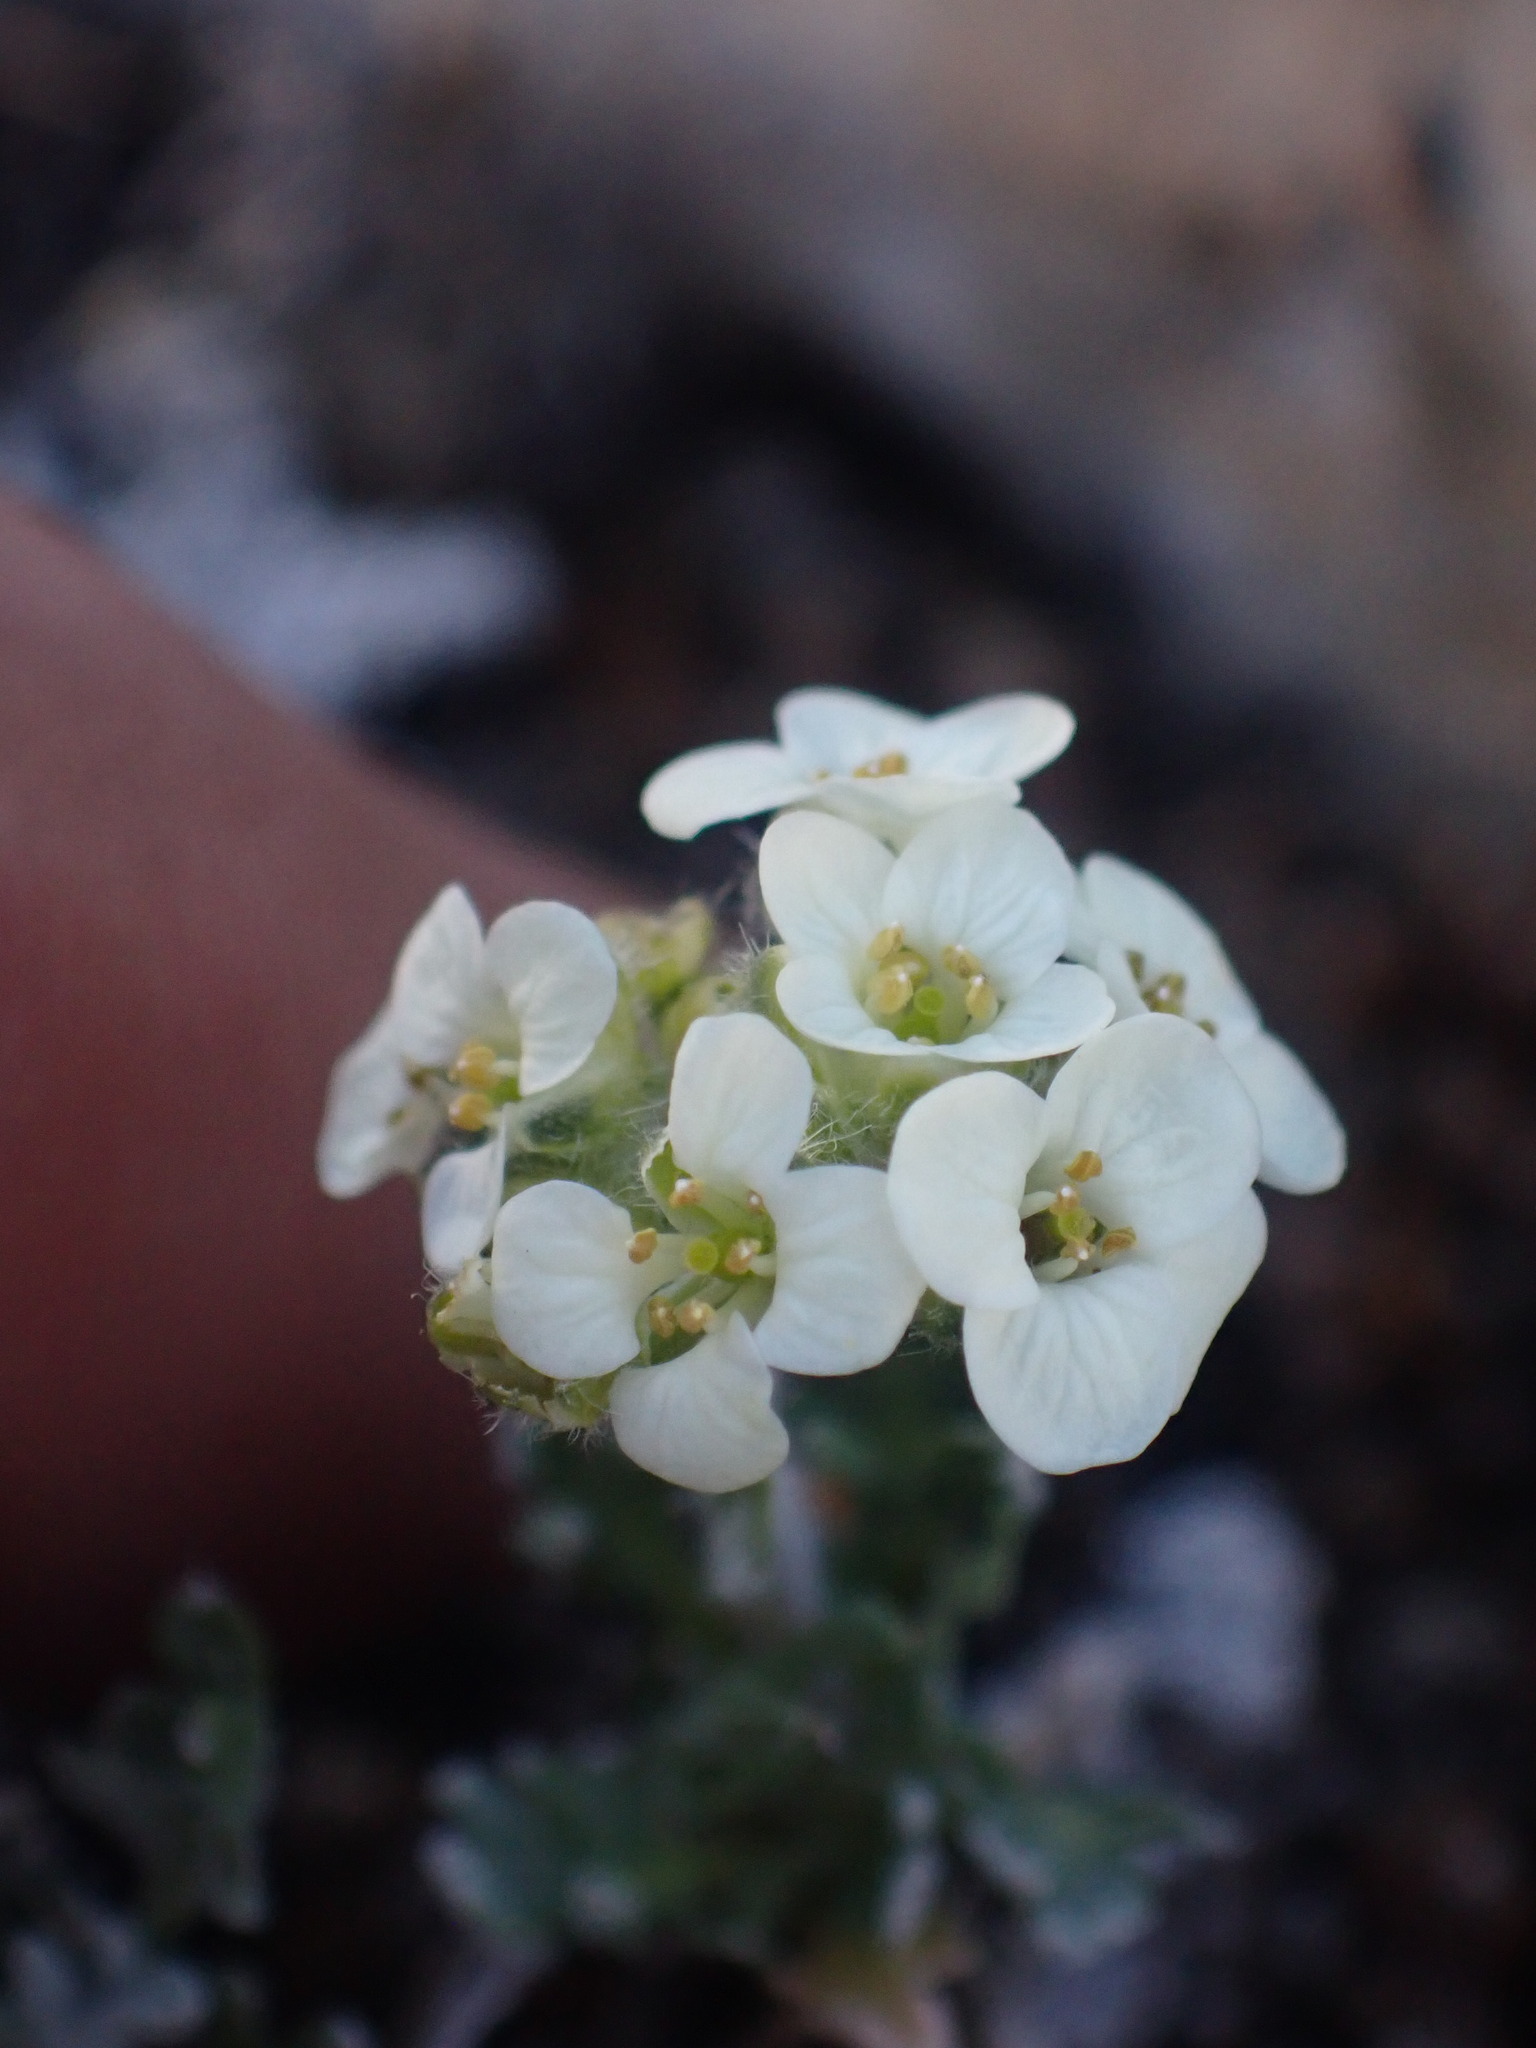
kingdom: Plantae
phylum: Tracheophyta
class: Magnoliopsida
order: Brassicales
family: Brassicaceae
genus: Smelowskia
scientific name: Smelowskia americana
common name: American false candytuft
